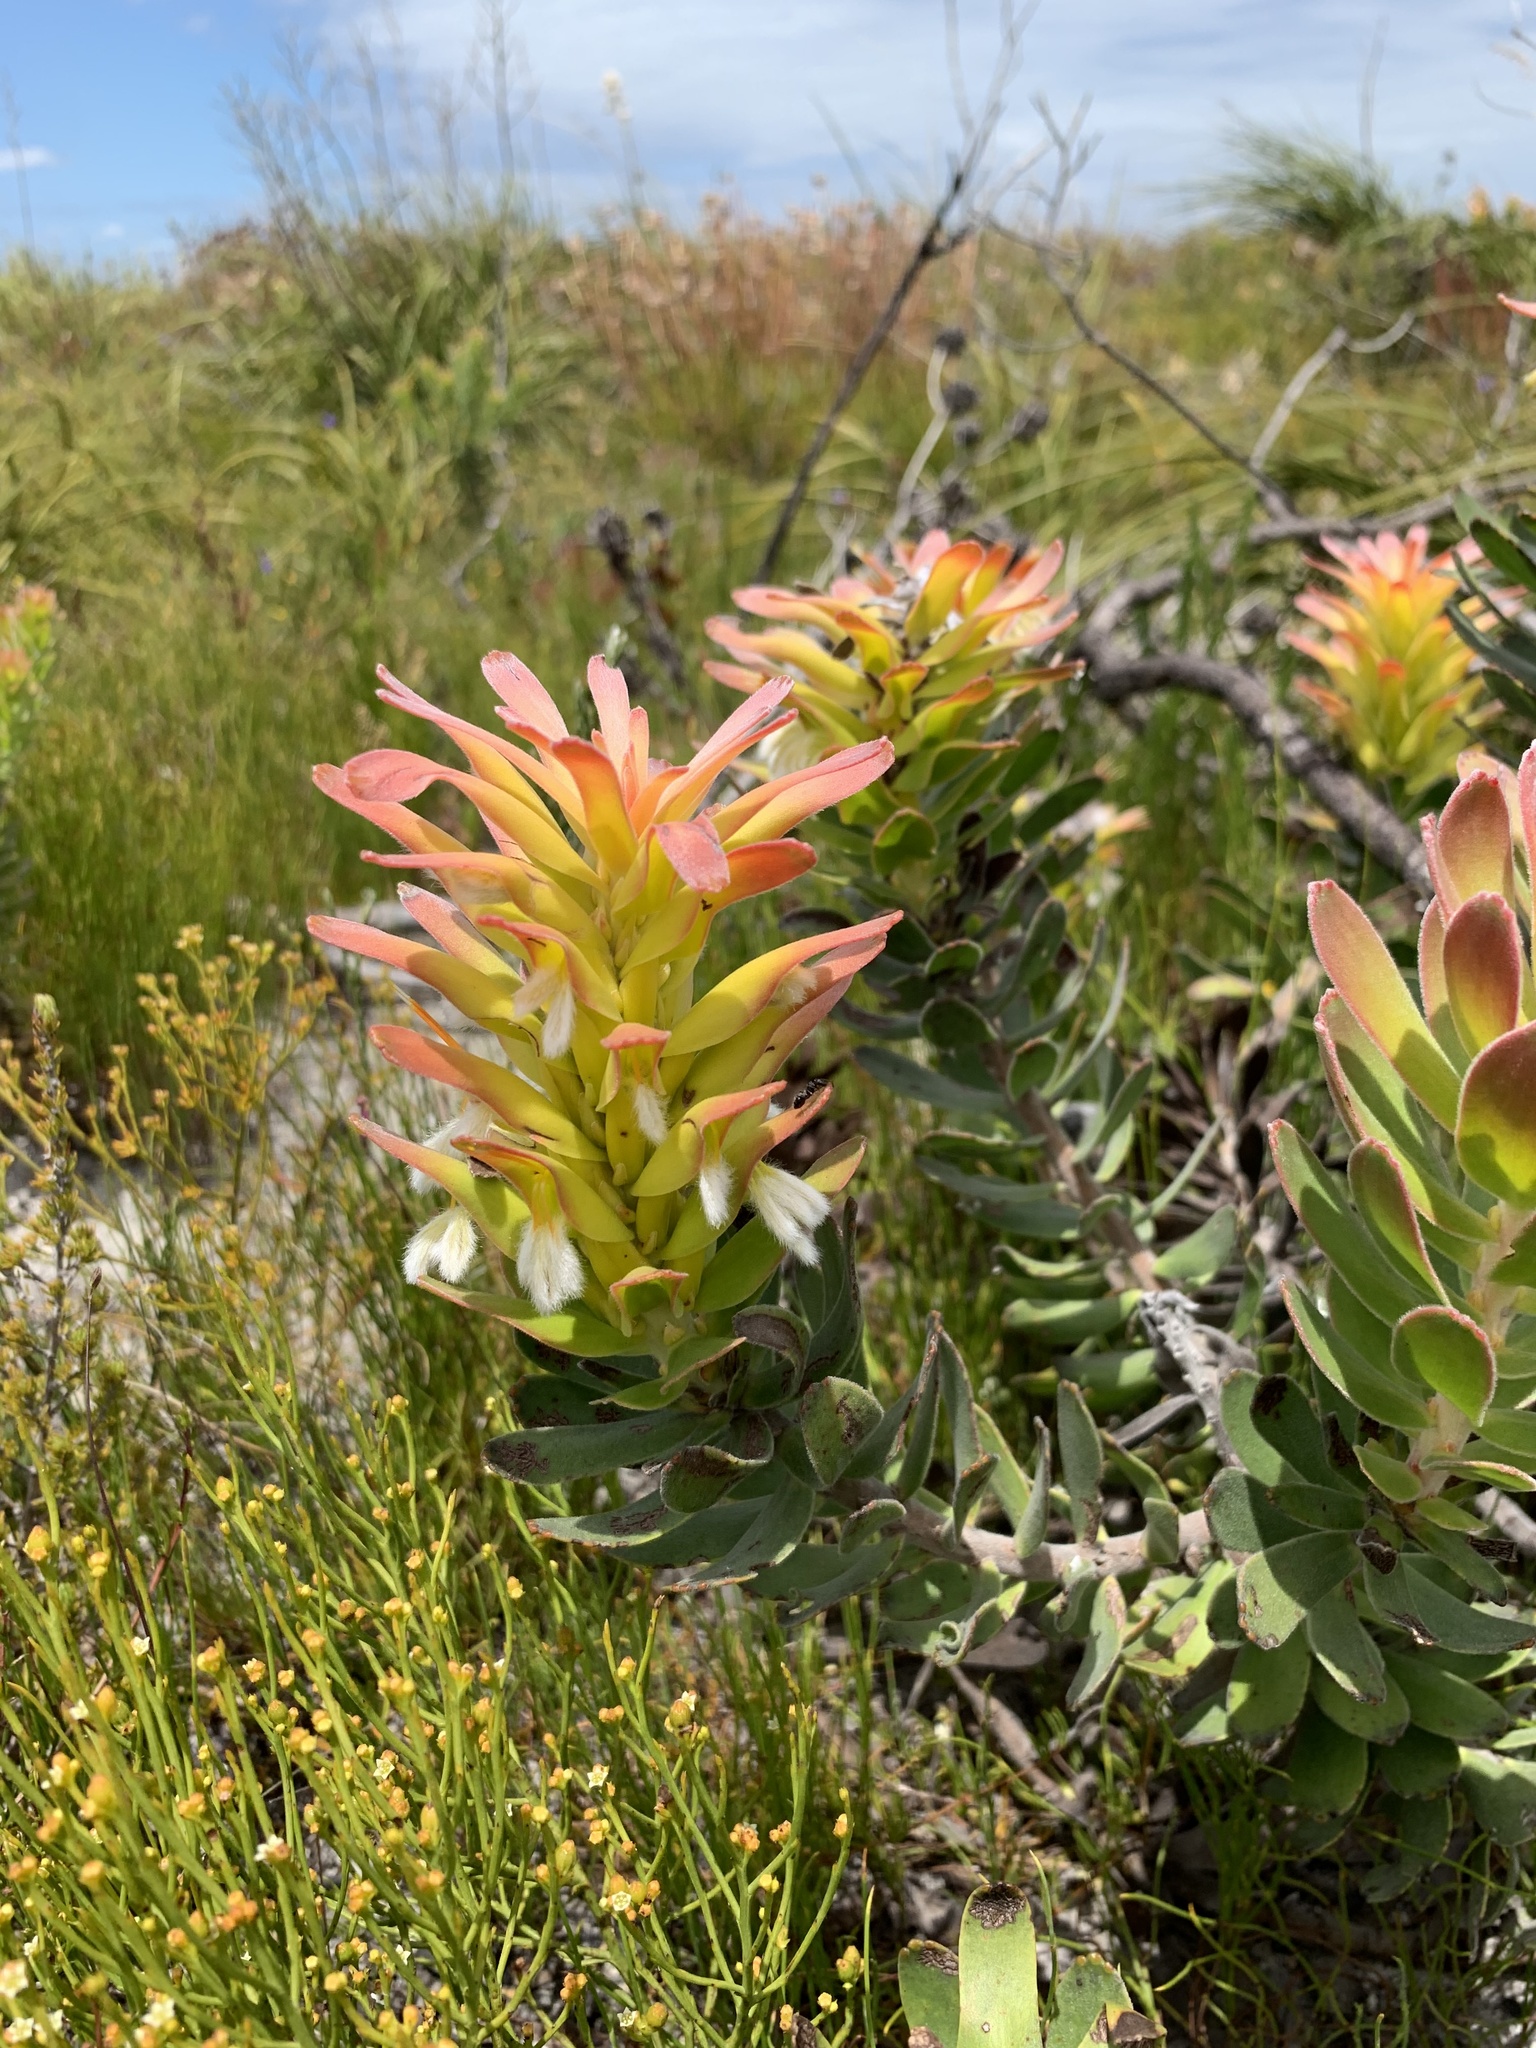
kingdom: Plantae
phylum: Tracheophyta
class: Magnoliopsida
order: Proteales
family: Proteaceae
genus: Mimetes
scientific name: Mimetes cucullatus
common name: Common pagoda
